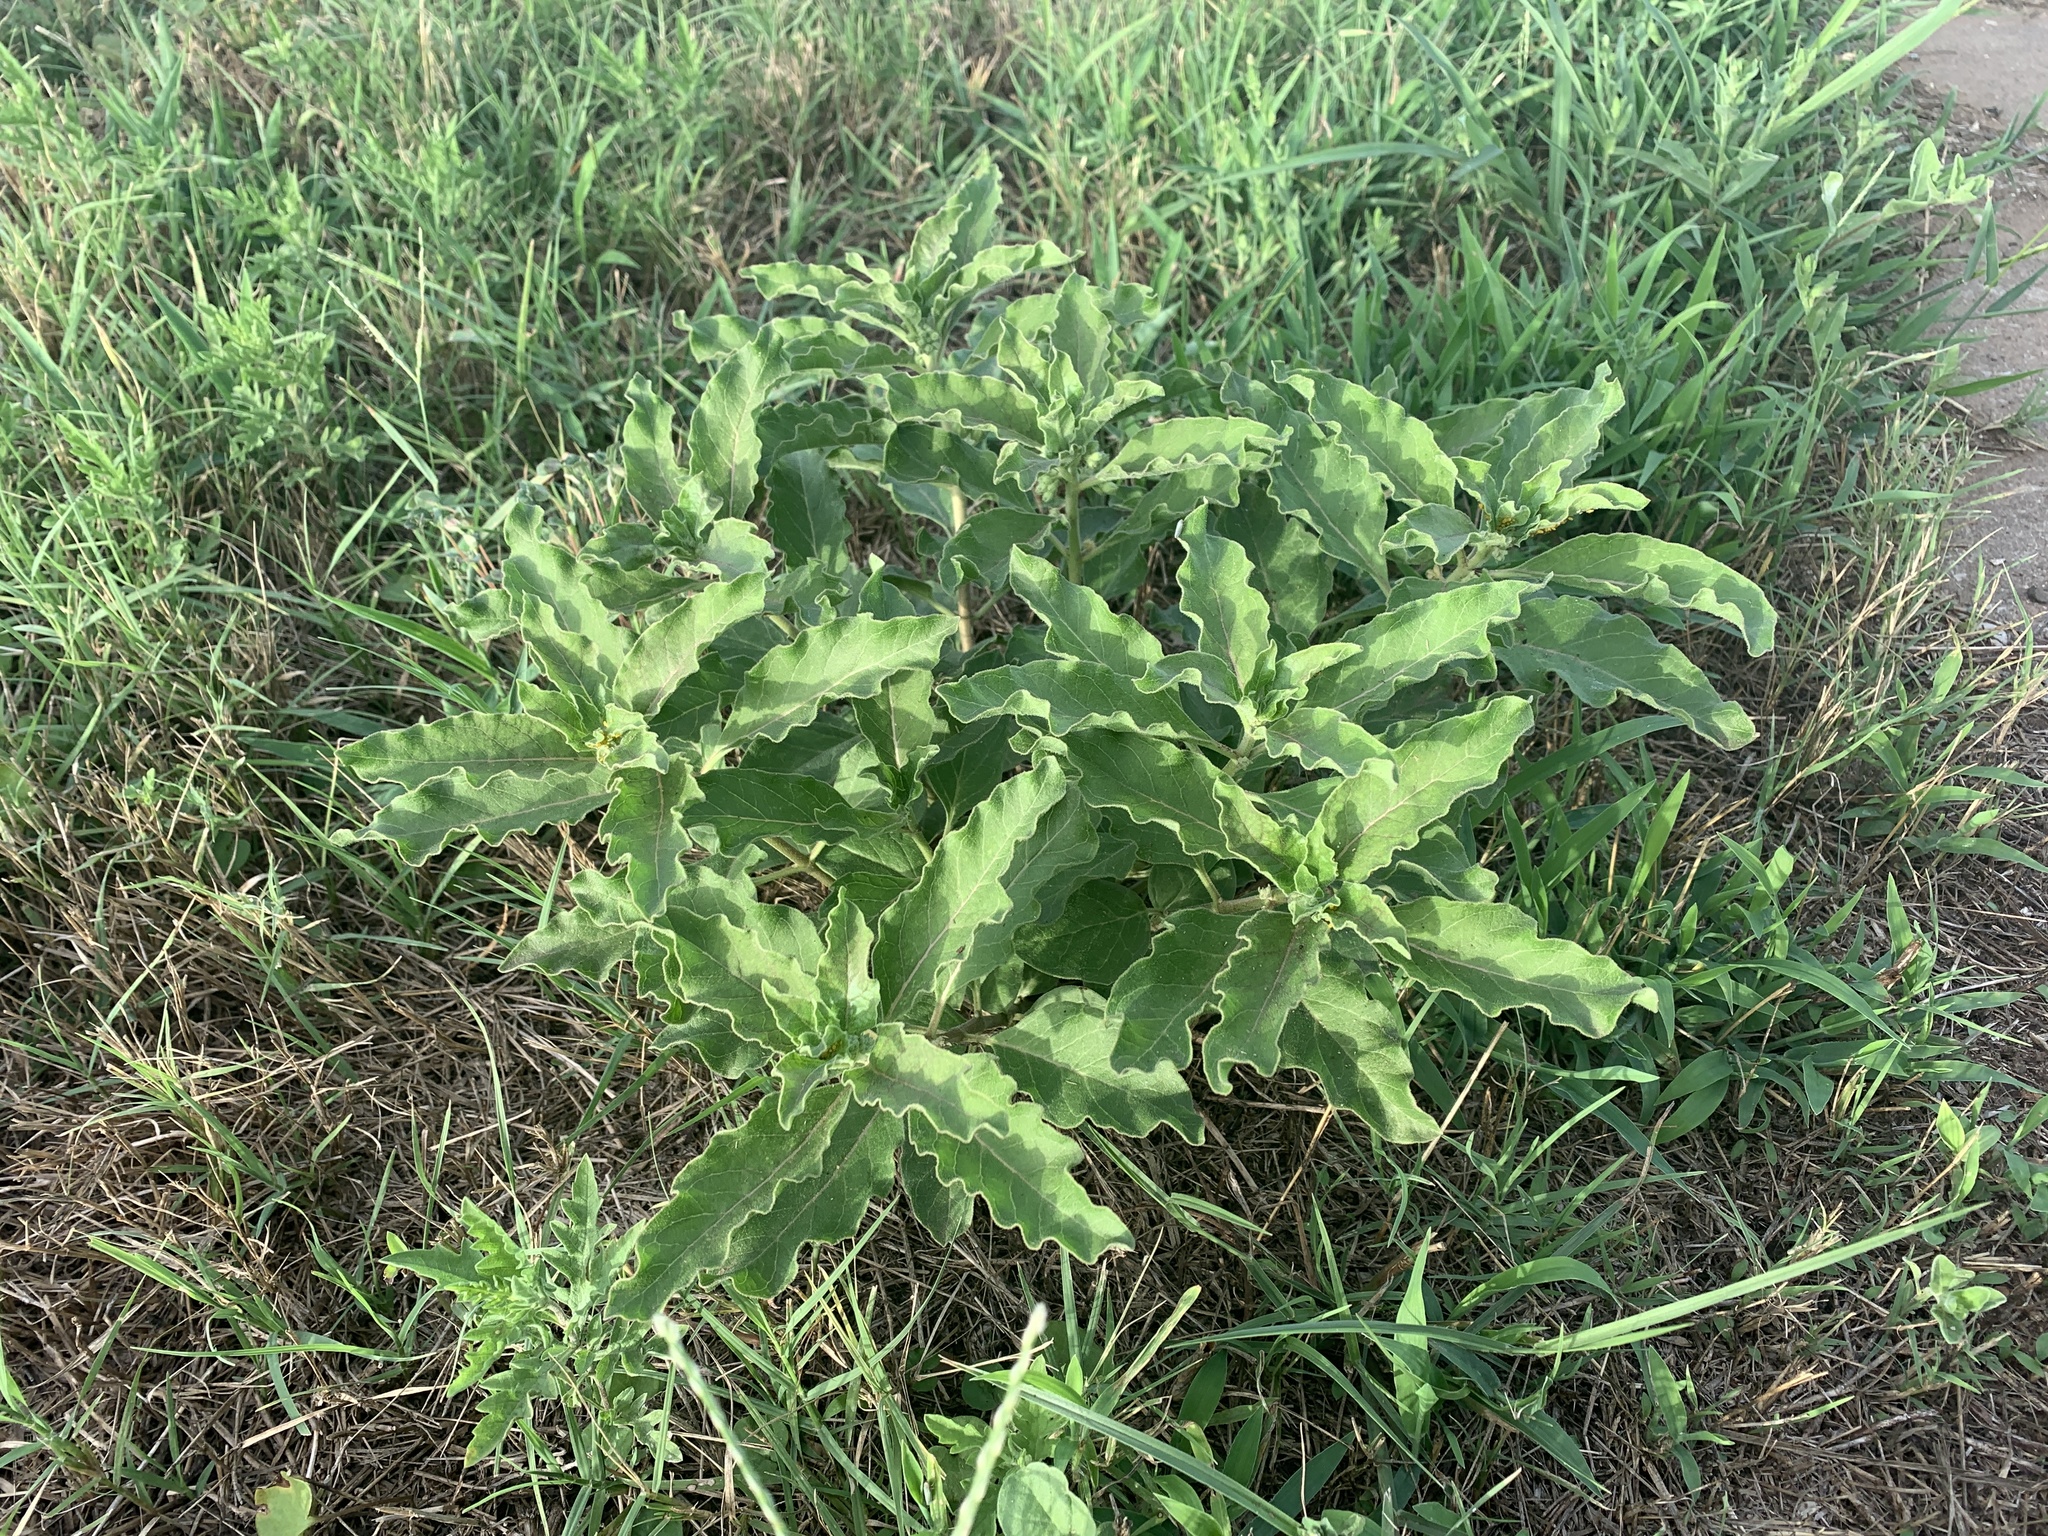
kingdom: Plantae
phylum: Tracheophyta
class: Magnoliopsida
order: Gentianales
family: Apocynaceae
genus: Asclepias
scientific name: Asclepias oenotheroides
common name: Zizotes milkweed
